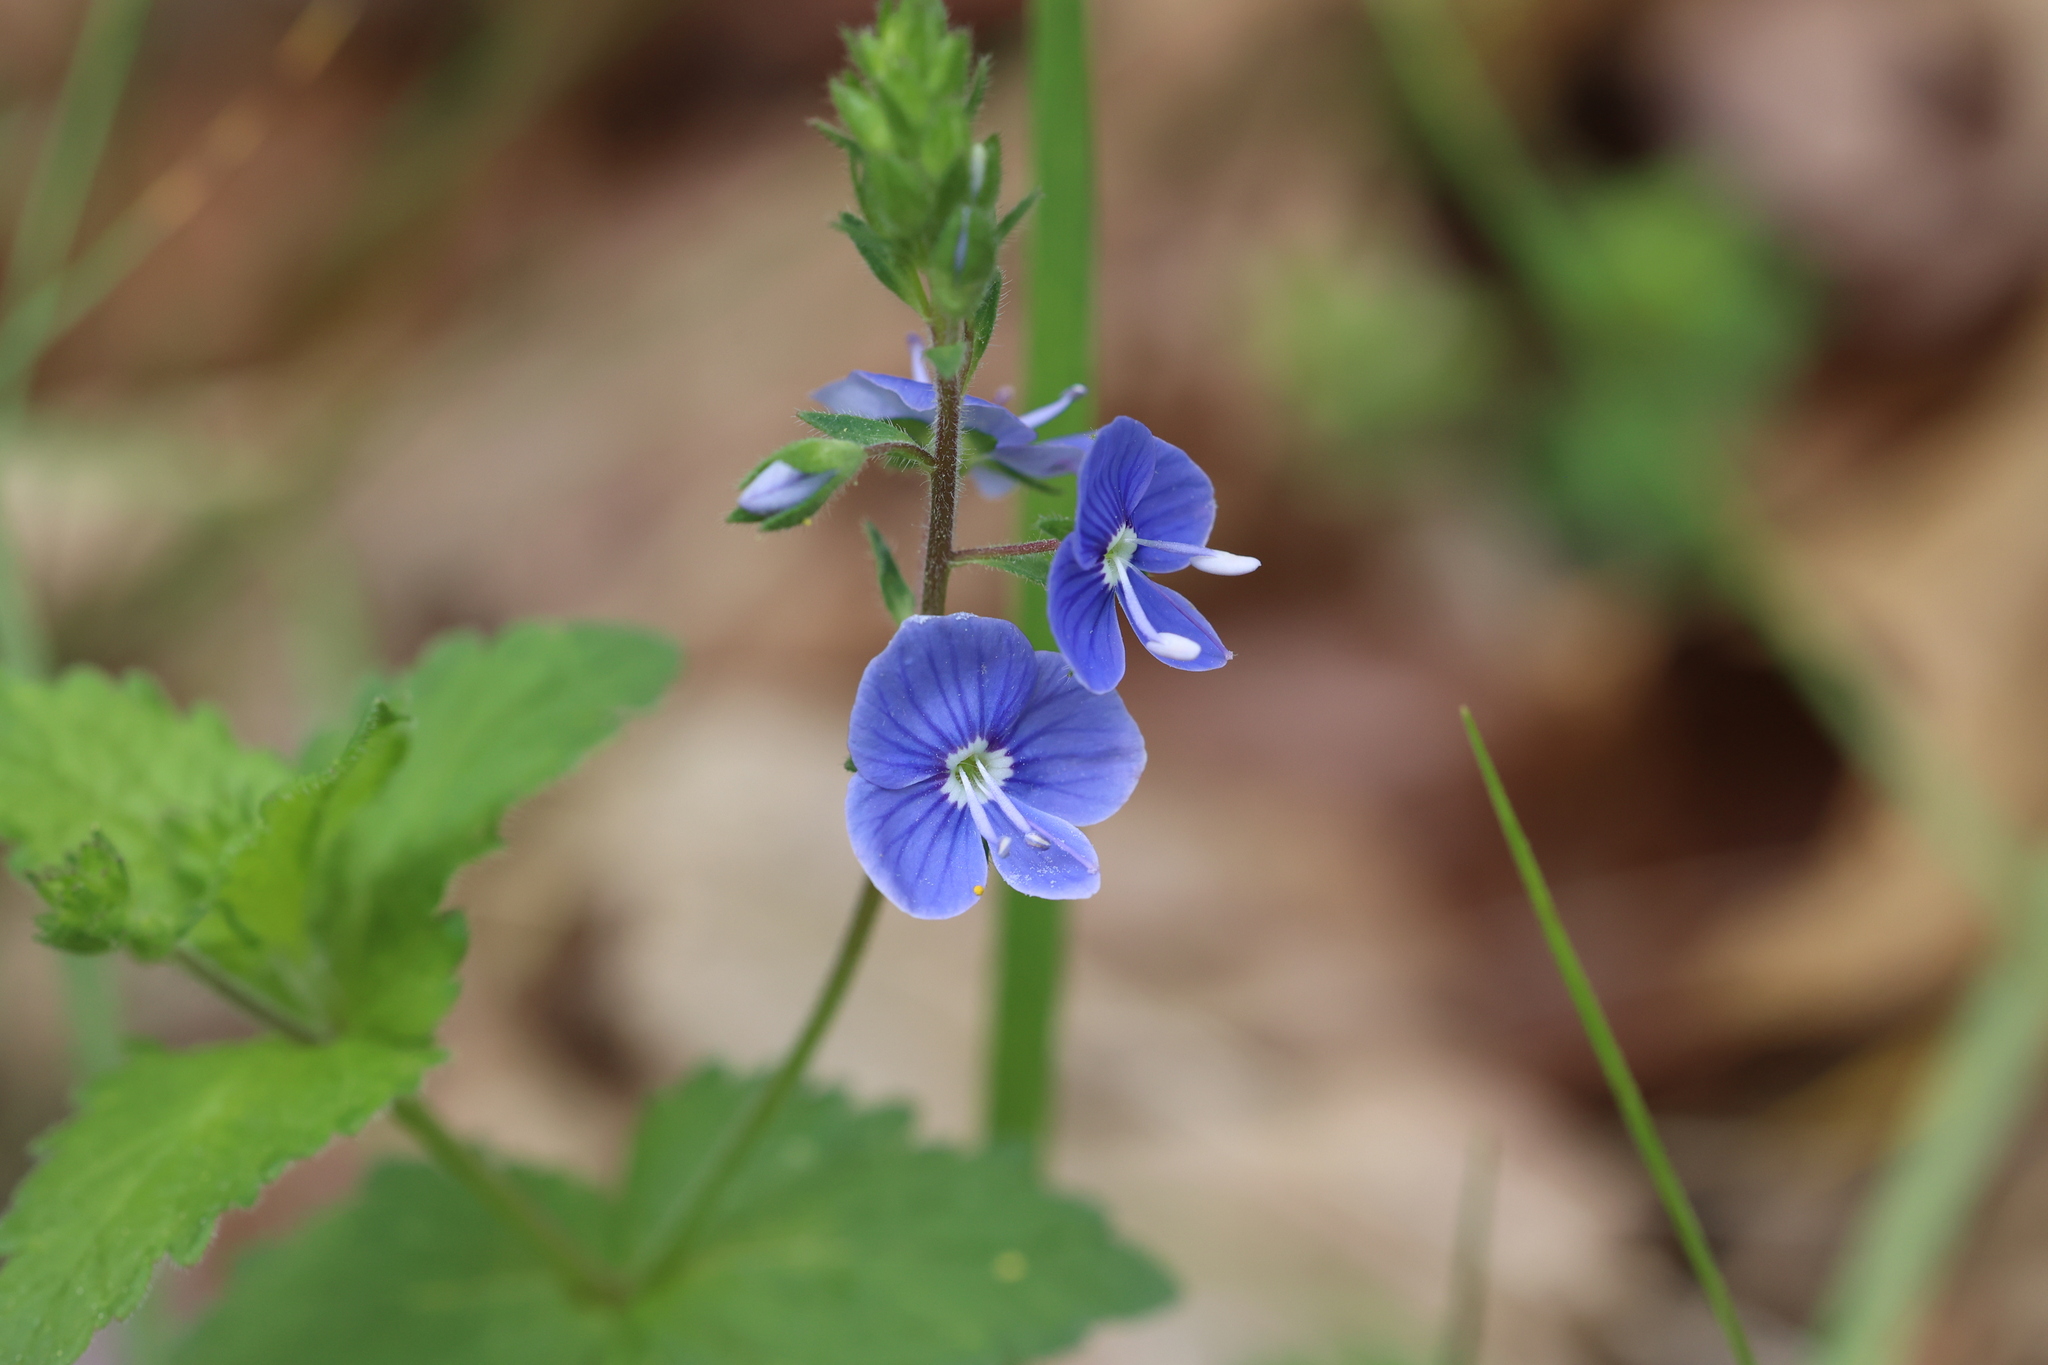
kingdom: Plantae
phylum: Tracheophyta
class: Magnoliopsida
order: Lamiales
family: Plantaginaceae
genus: Veronica
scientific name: Veronica chamaedrys
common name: Germander speedwell
